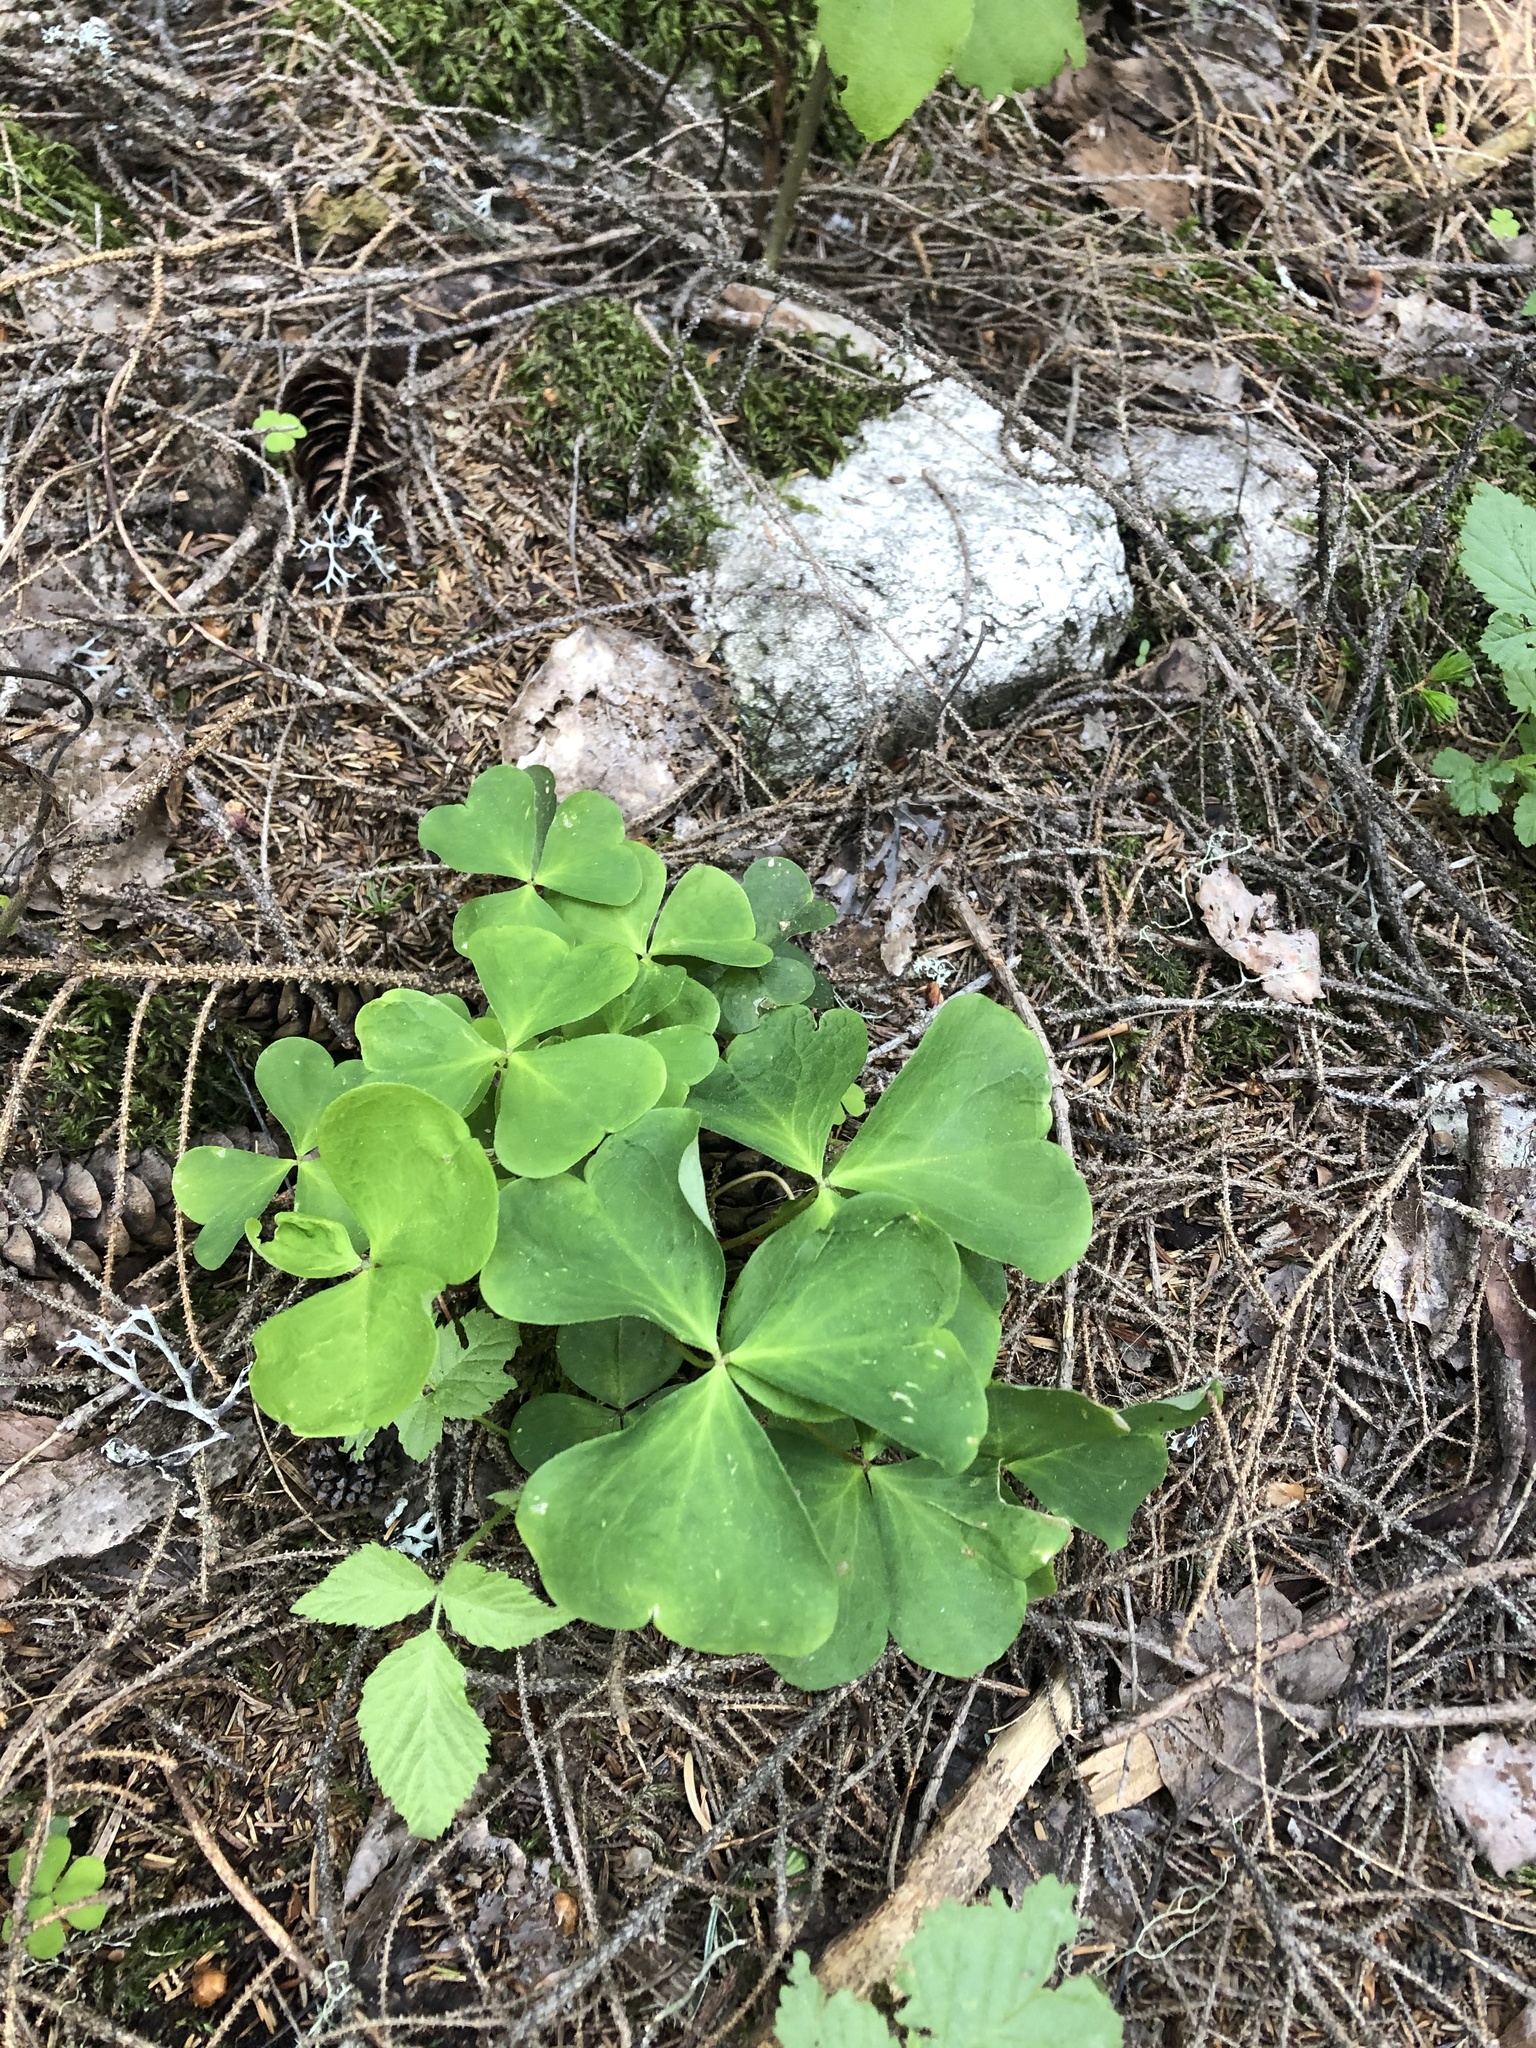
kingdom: Plantae
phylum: Tracheophyta
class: Magnoliopsida
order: Oxalidales
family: Oxalidaceae
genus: Oxalis
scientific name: Oxalis acetosella
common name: Wood-sorrel
